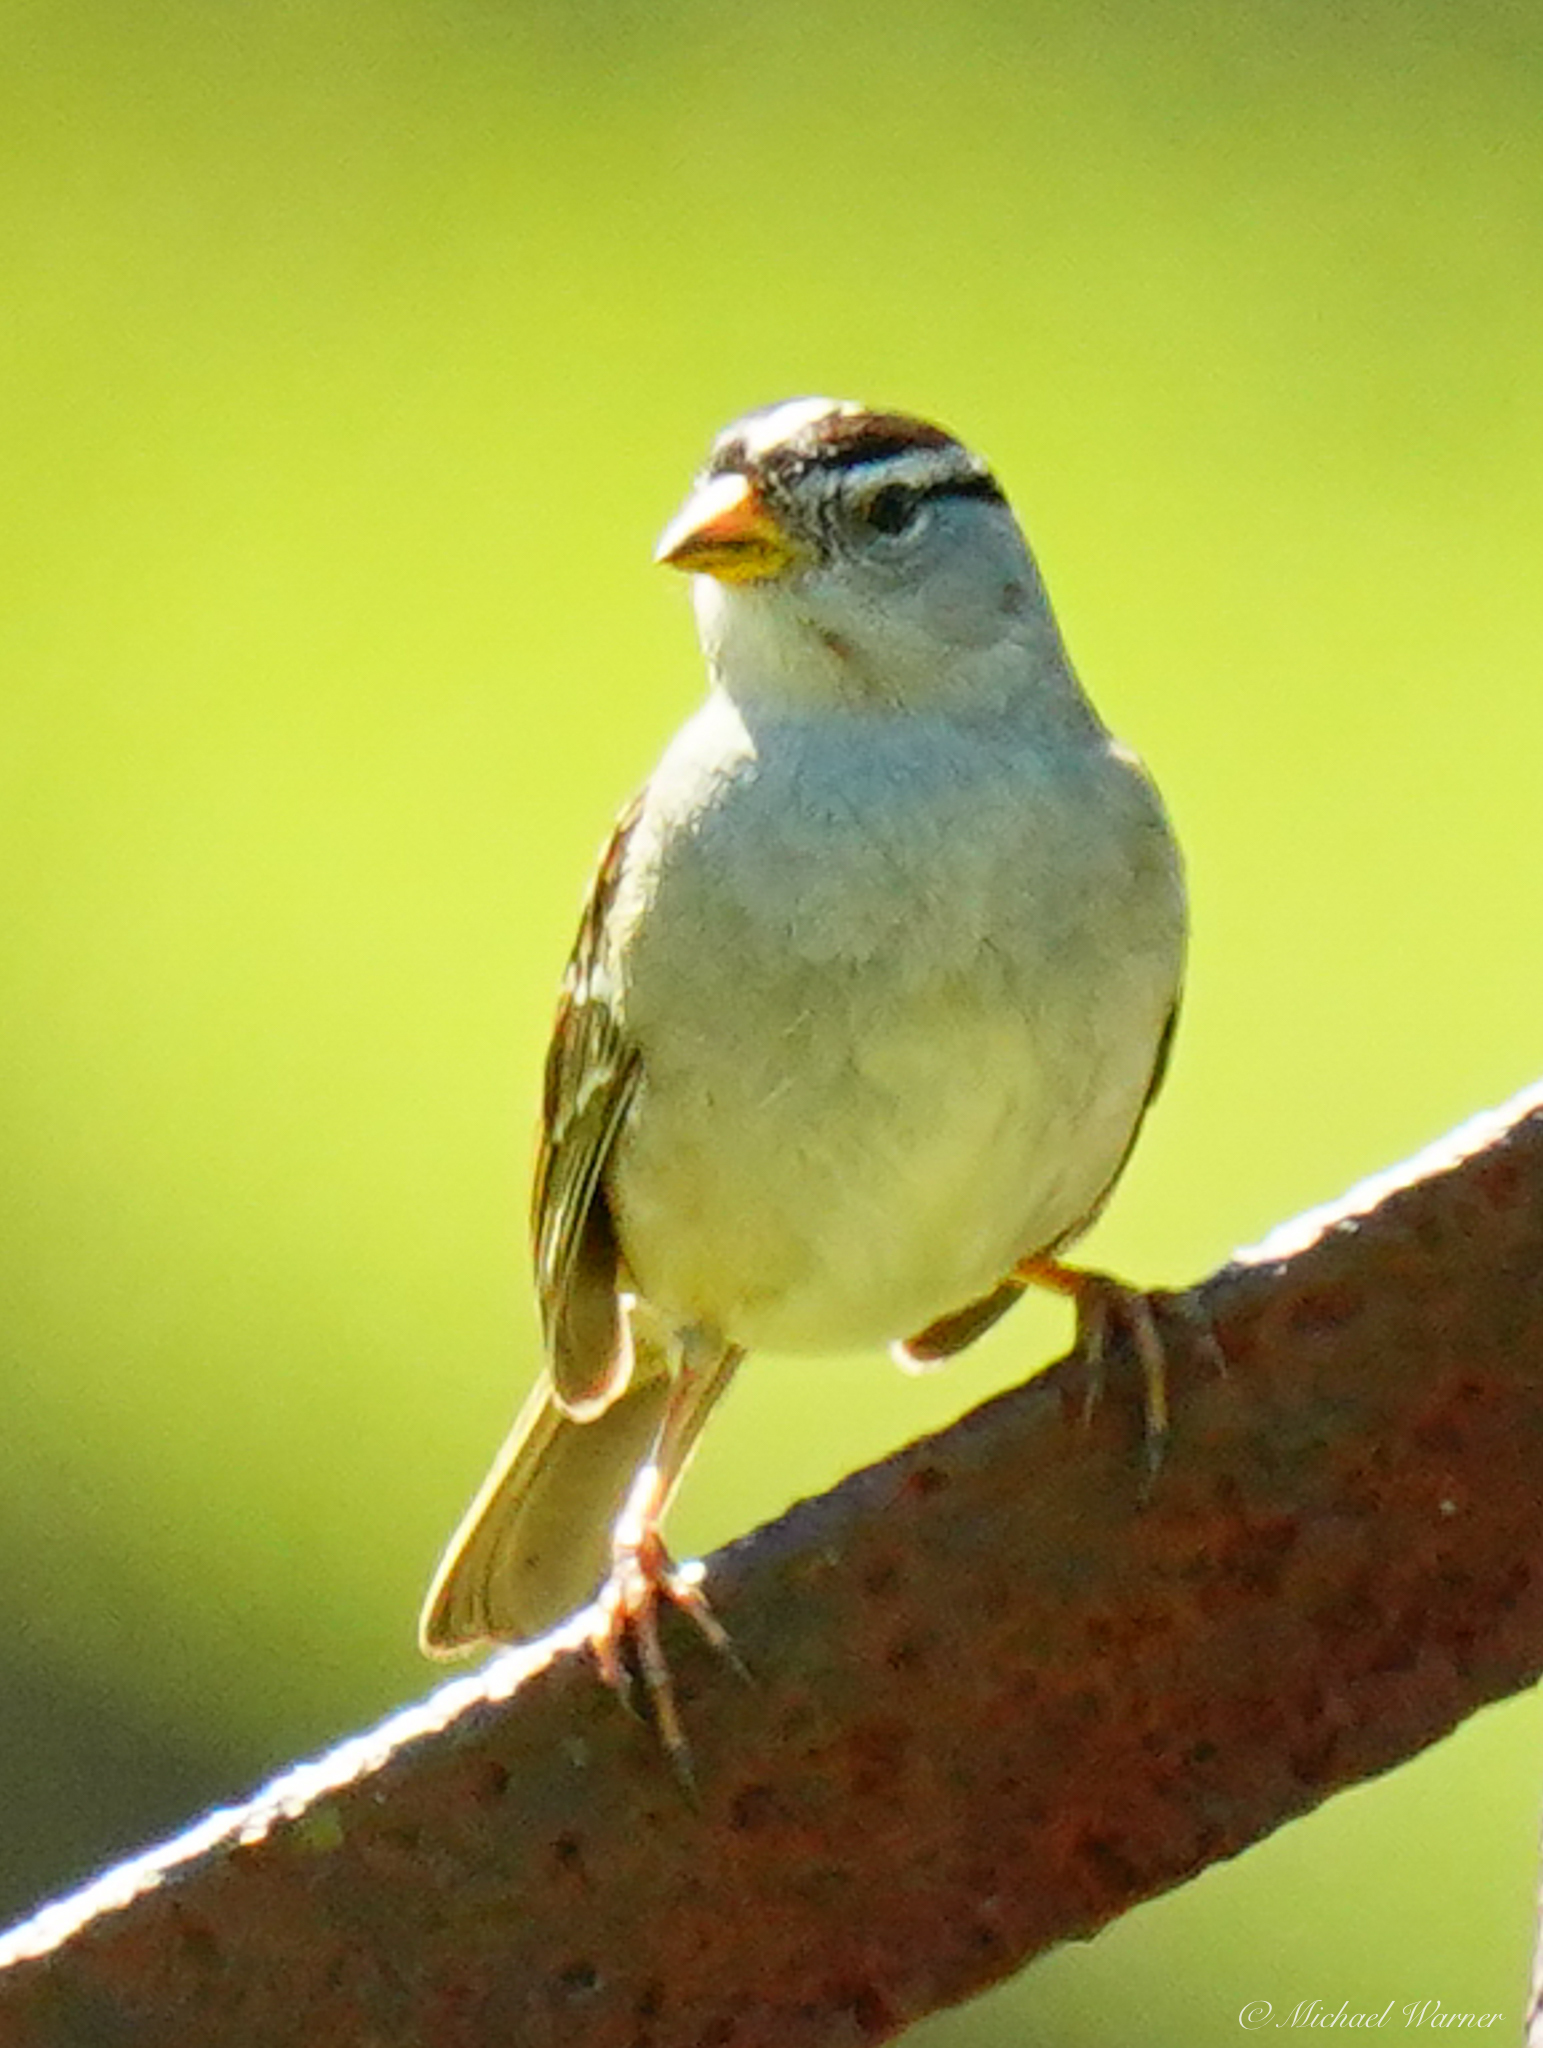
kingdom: Animalia
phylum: Chordata
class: Aves
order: Passeriformes
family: Passerellidae
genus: Zonotrichia
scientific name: Zonotrichia leucophrys
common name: White-crowned sparrow
